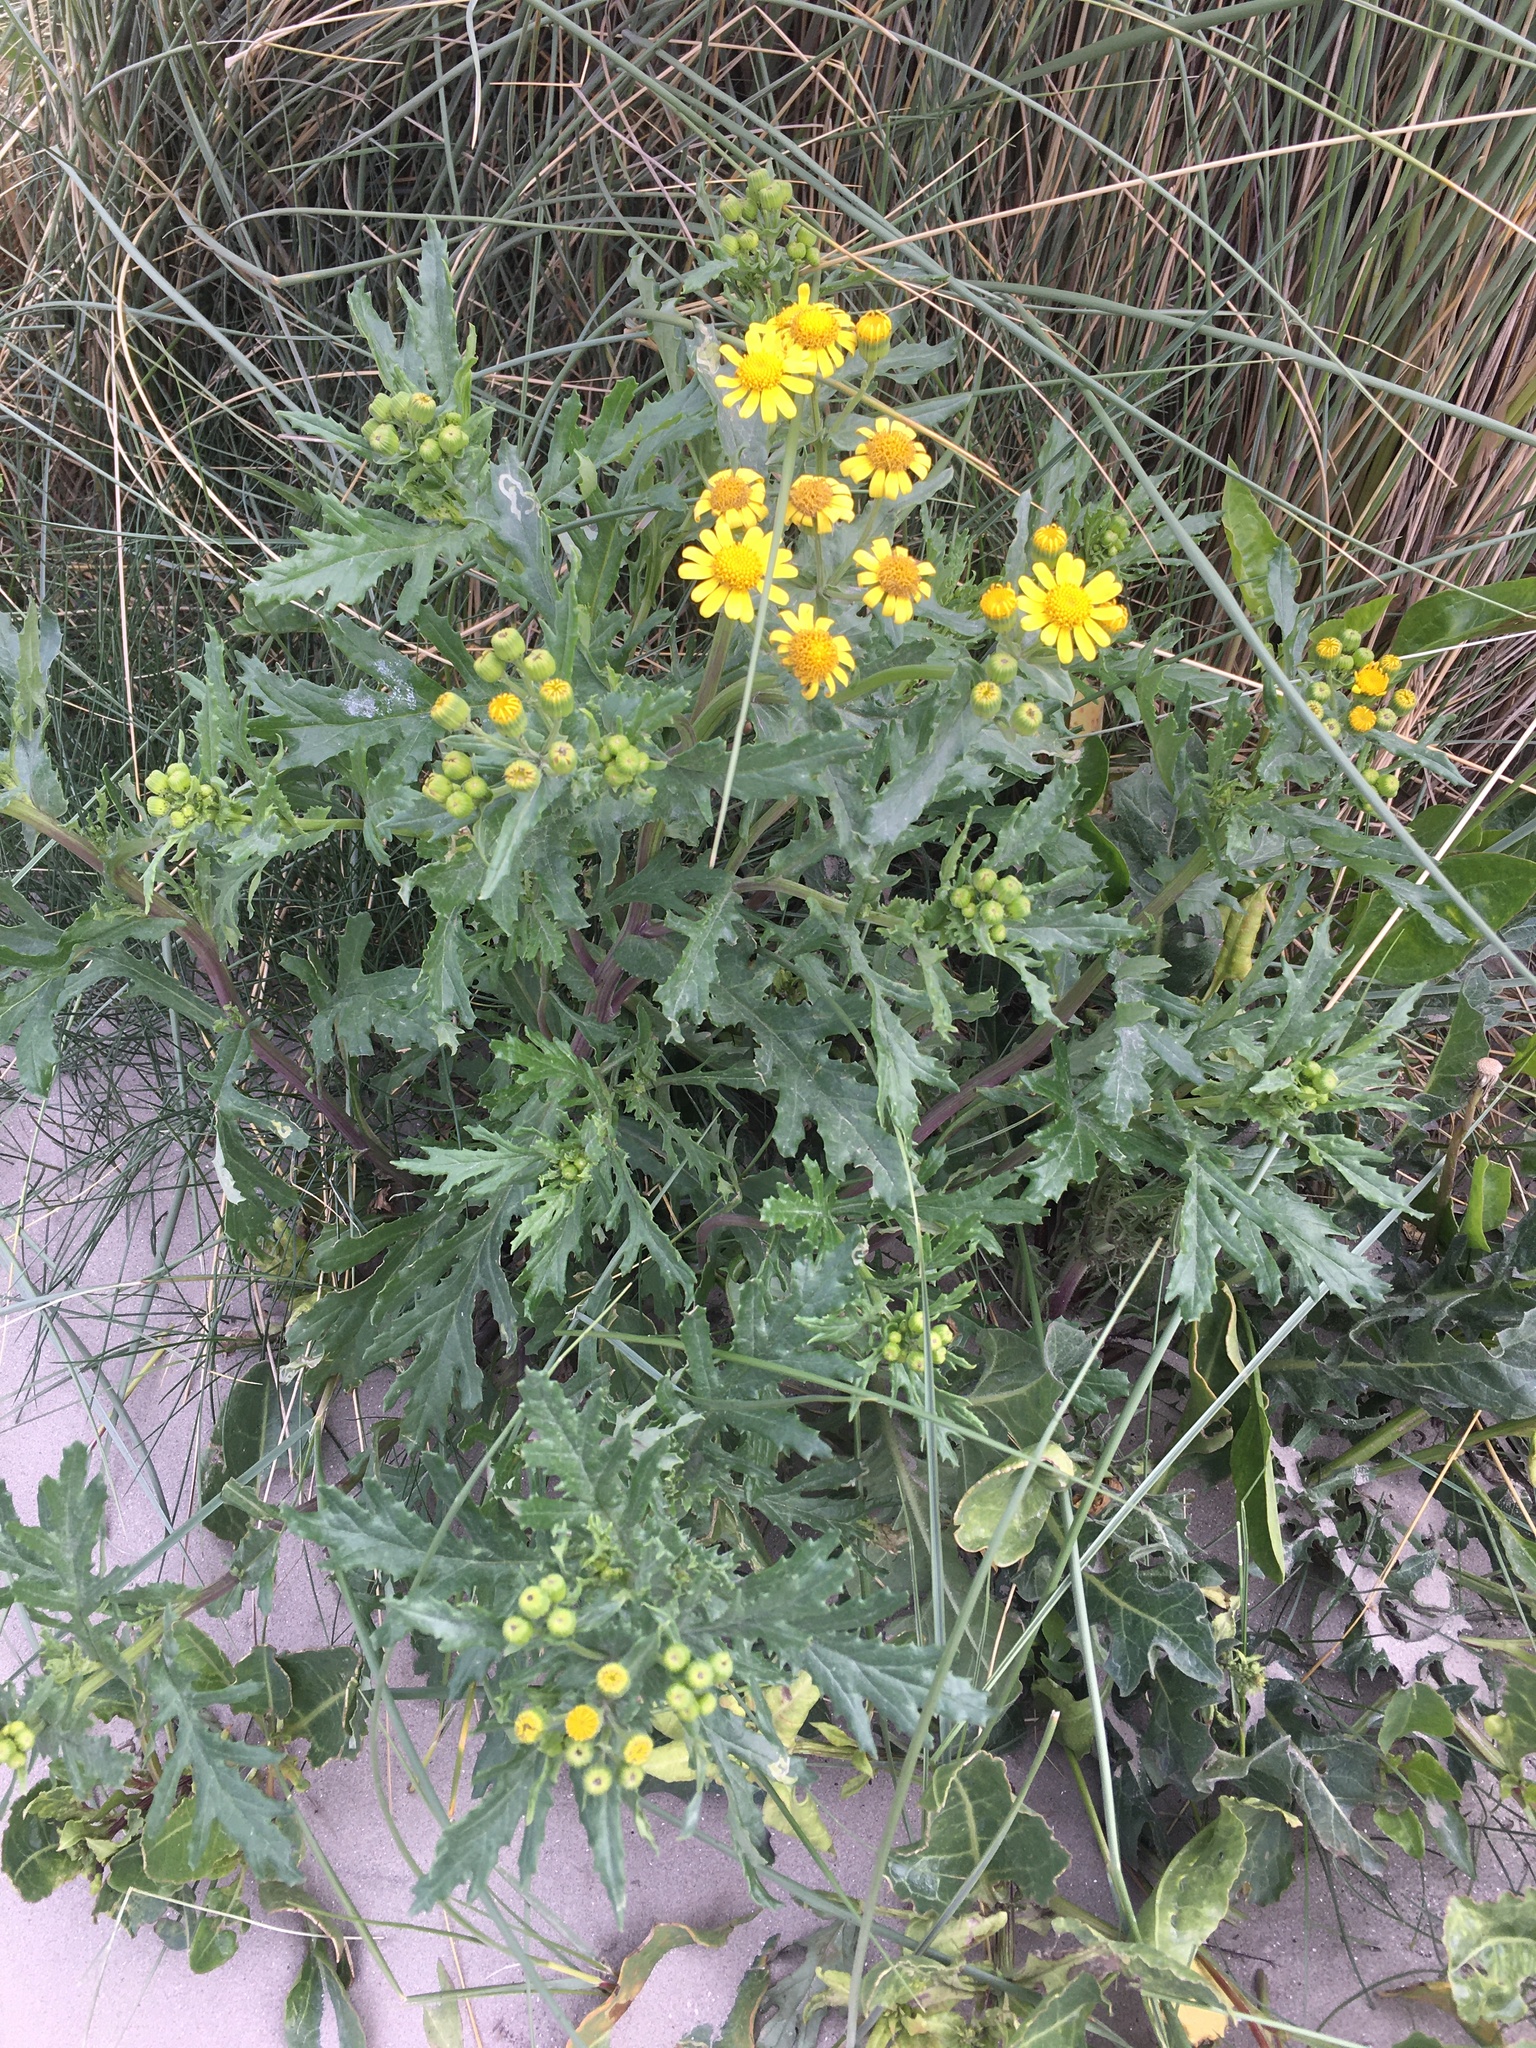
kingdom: Plantae
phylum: Tracheophyta
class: Magnoliopsida
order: Asterales
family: Asteraceae
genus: Senecio
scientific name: Senecio squalidus
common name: Oxford ragwort
